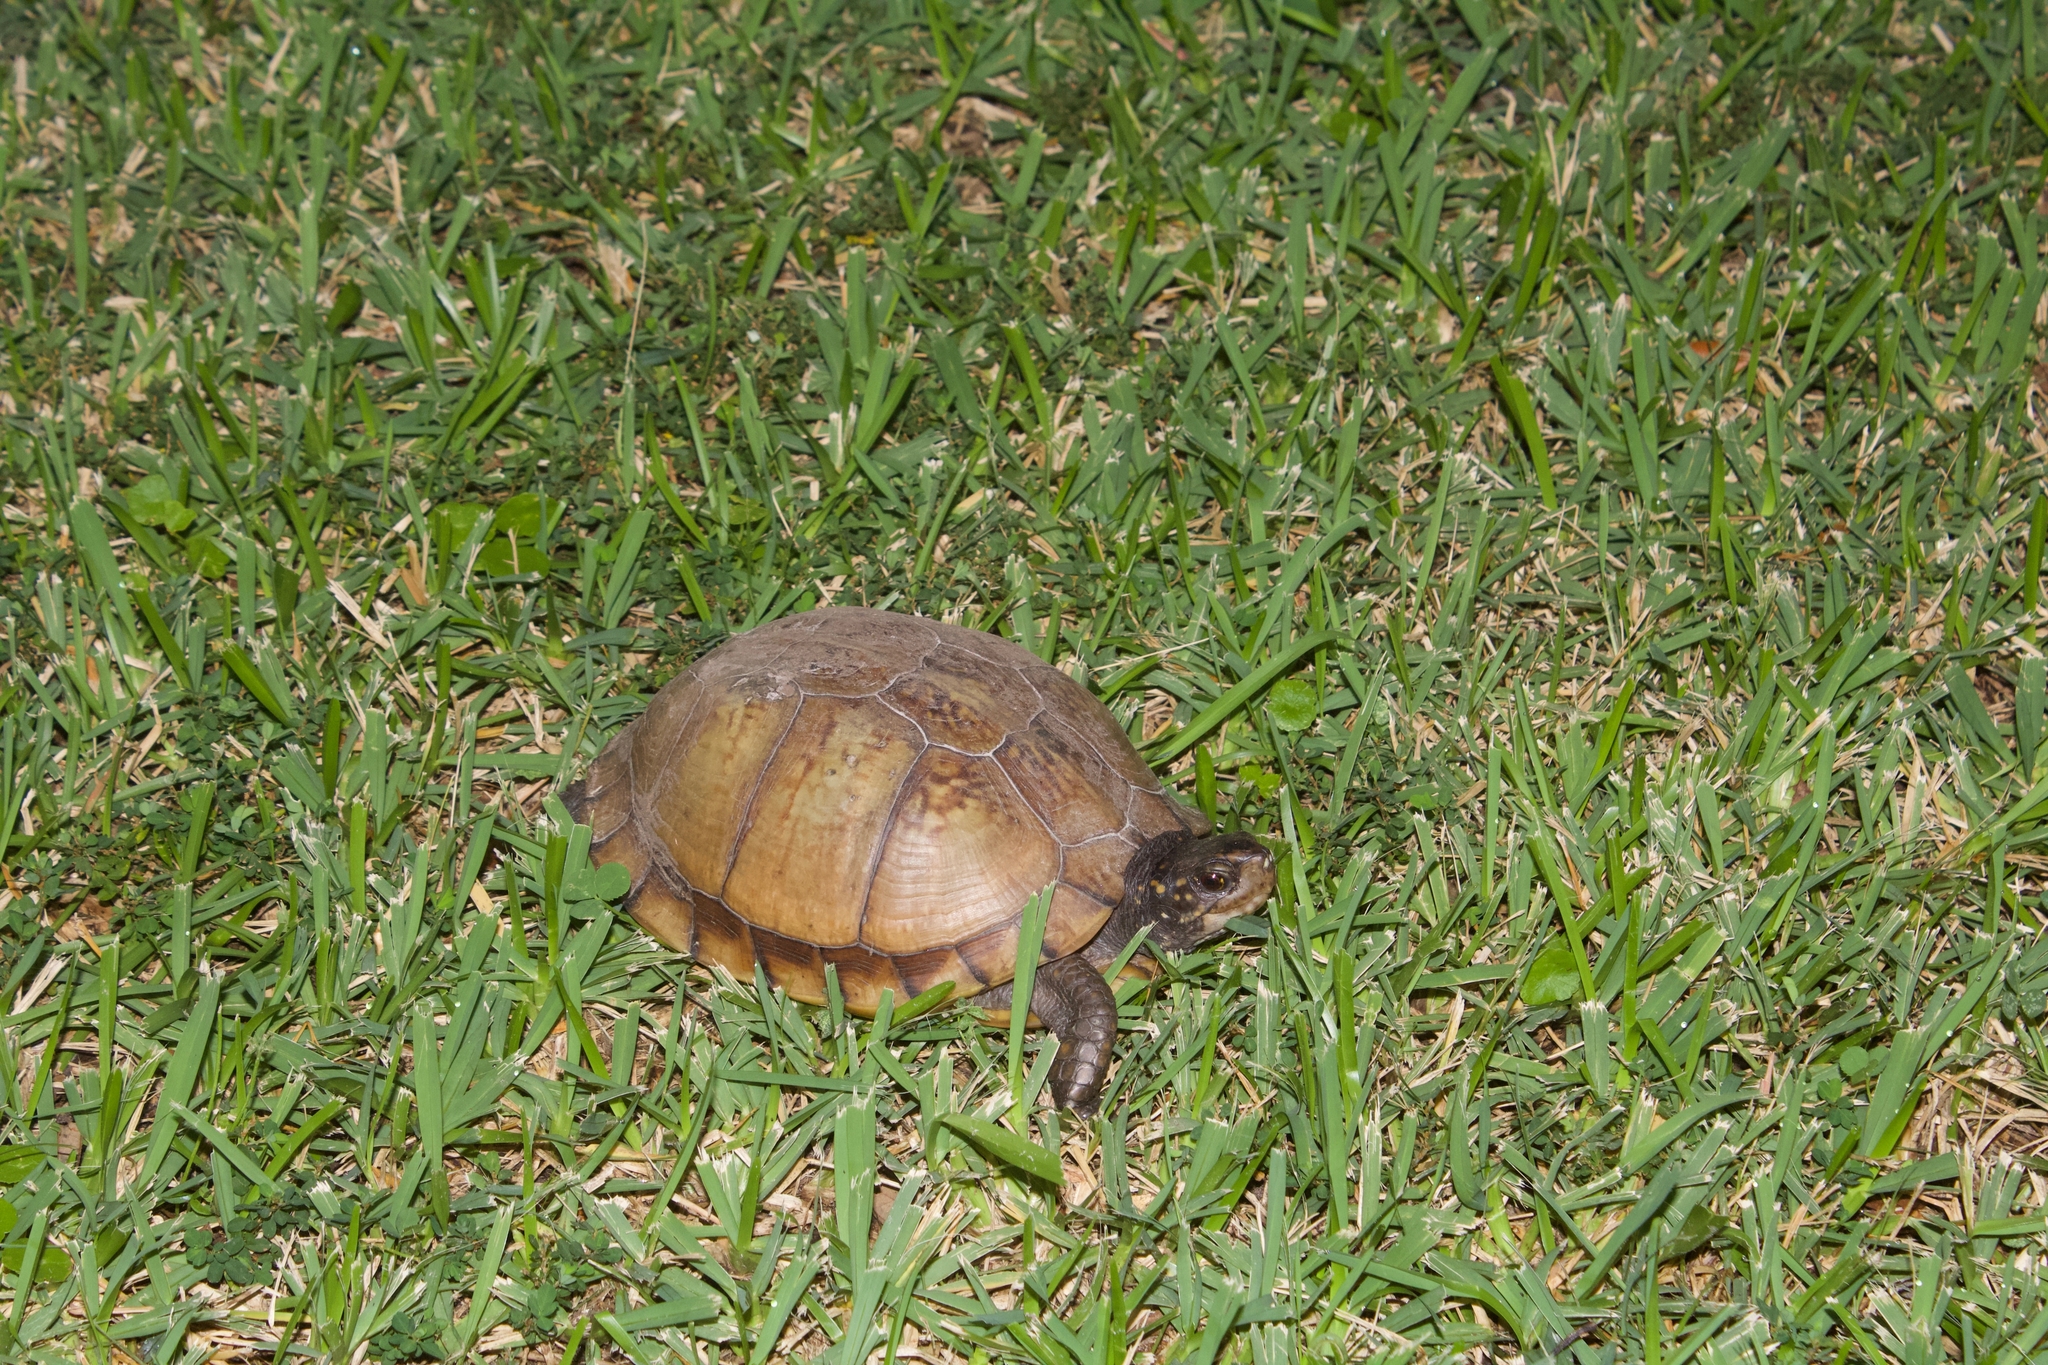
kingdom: Animalia
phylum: Chordata
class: Testudines
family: Emydidae
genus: Terrapene
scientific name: Terrapene carolina
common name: Common box turtle
